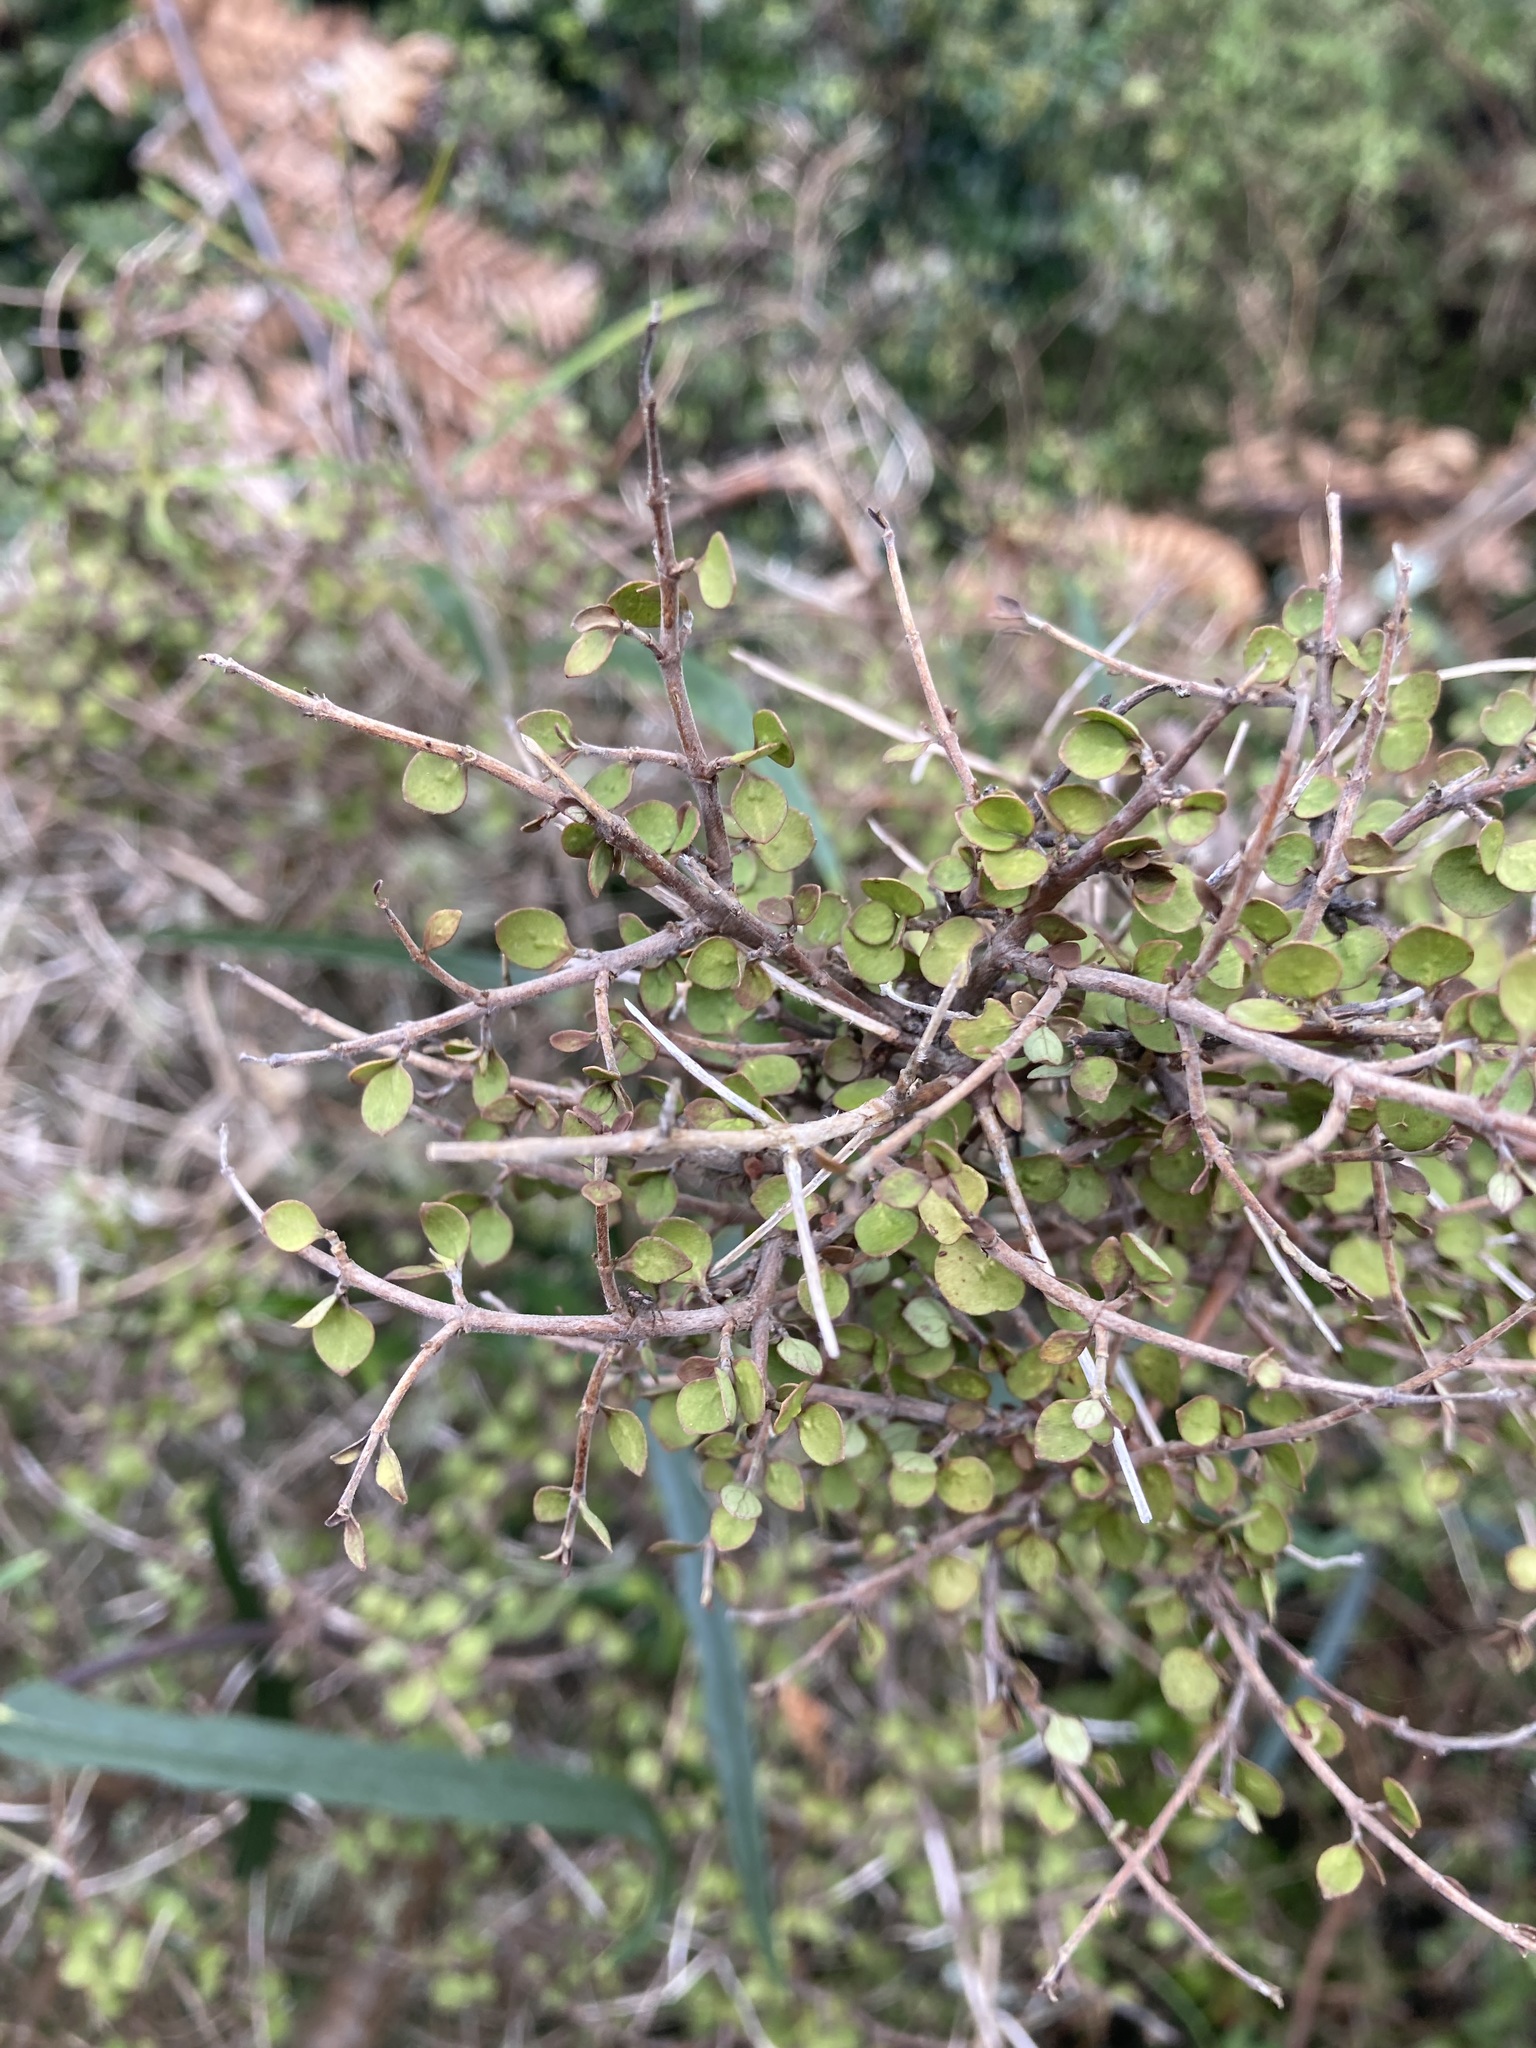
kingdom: Plantae
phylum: Tracheophyta
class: Magnoliopsida
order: Gentianales
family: Rubiaceae
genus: Coprosma
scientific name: Coprosma rhamnoides
